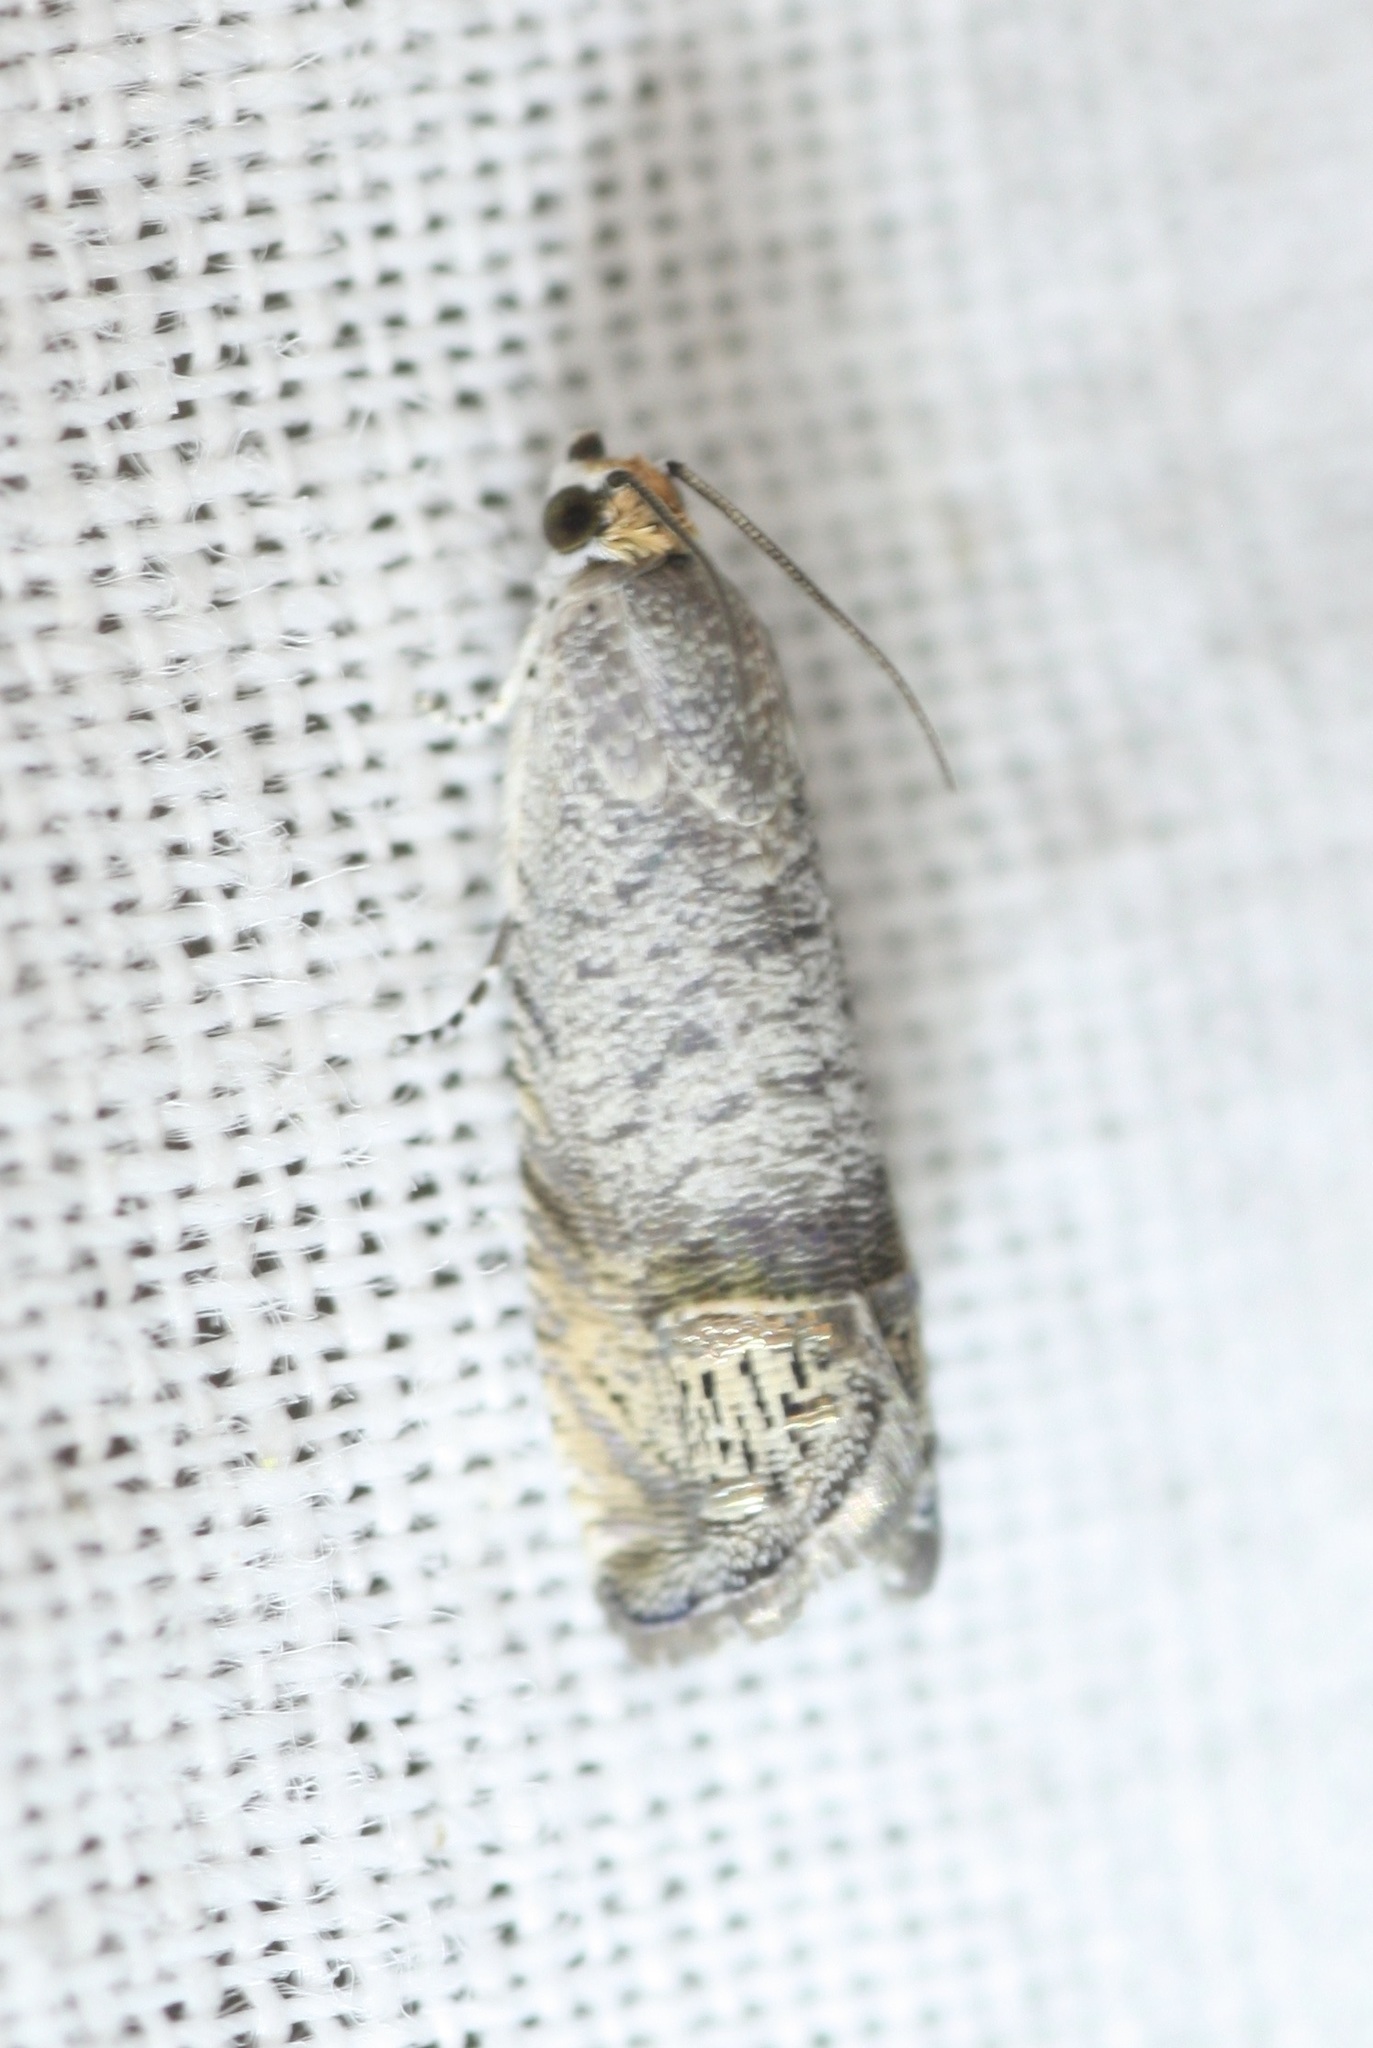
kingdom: Animalia
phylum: Arthropoda
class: Insecta
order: Lepidoptera
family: Tortricidae
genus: Ofatulena
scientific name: Ofatulena luminosa
